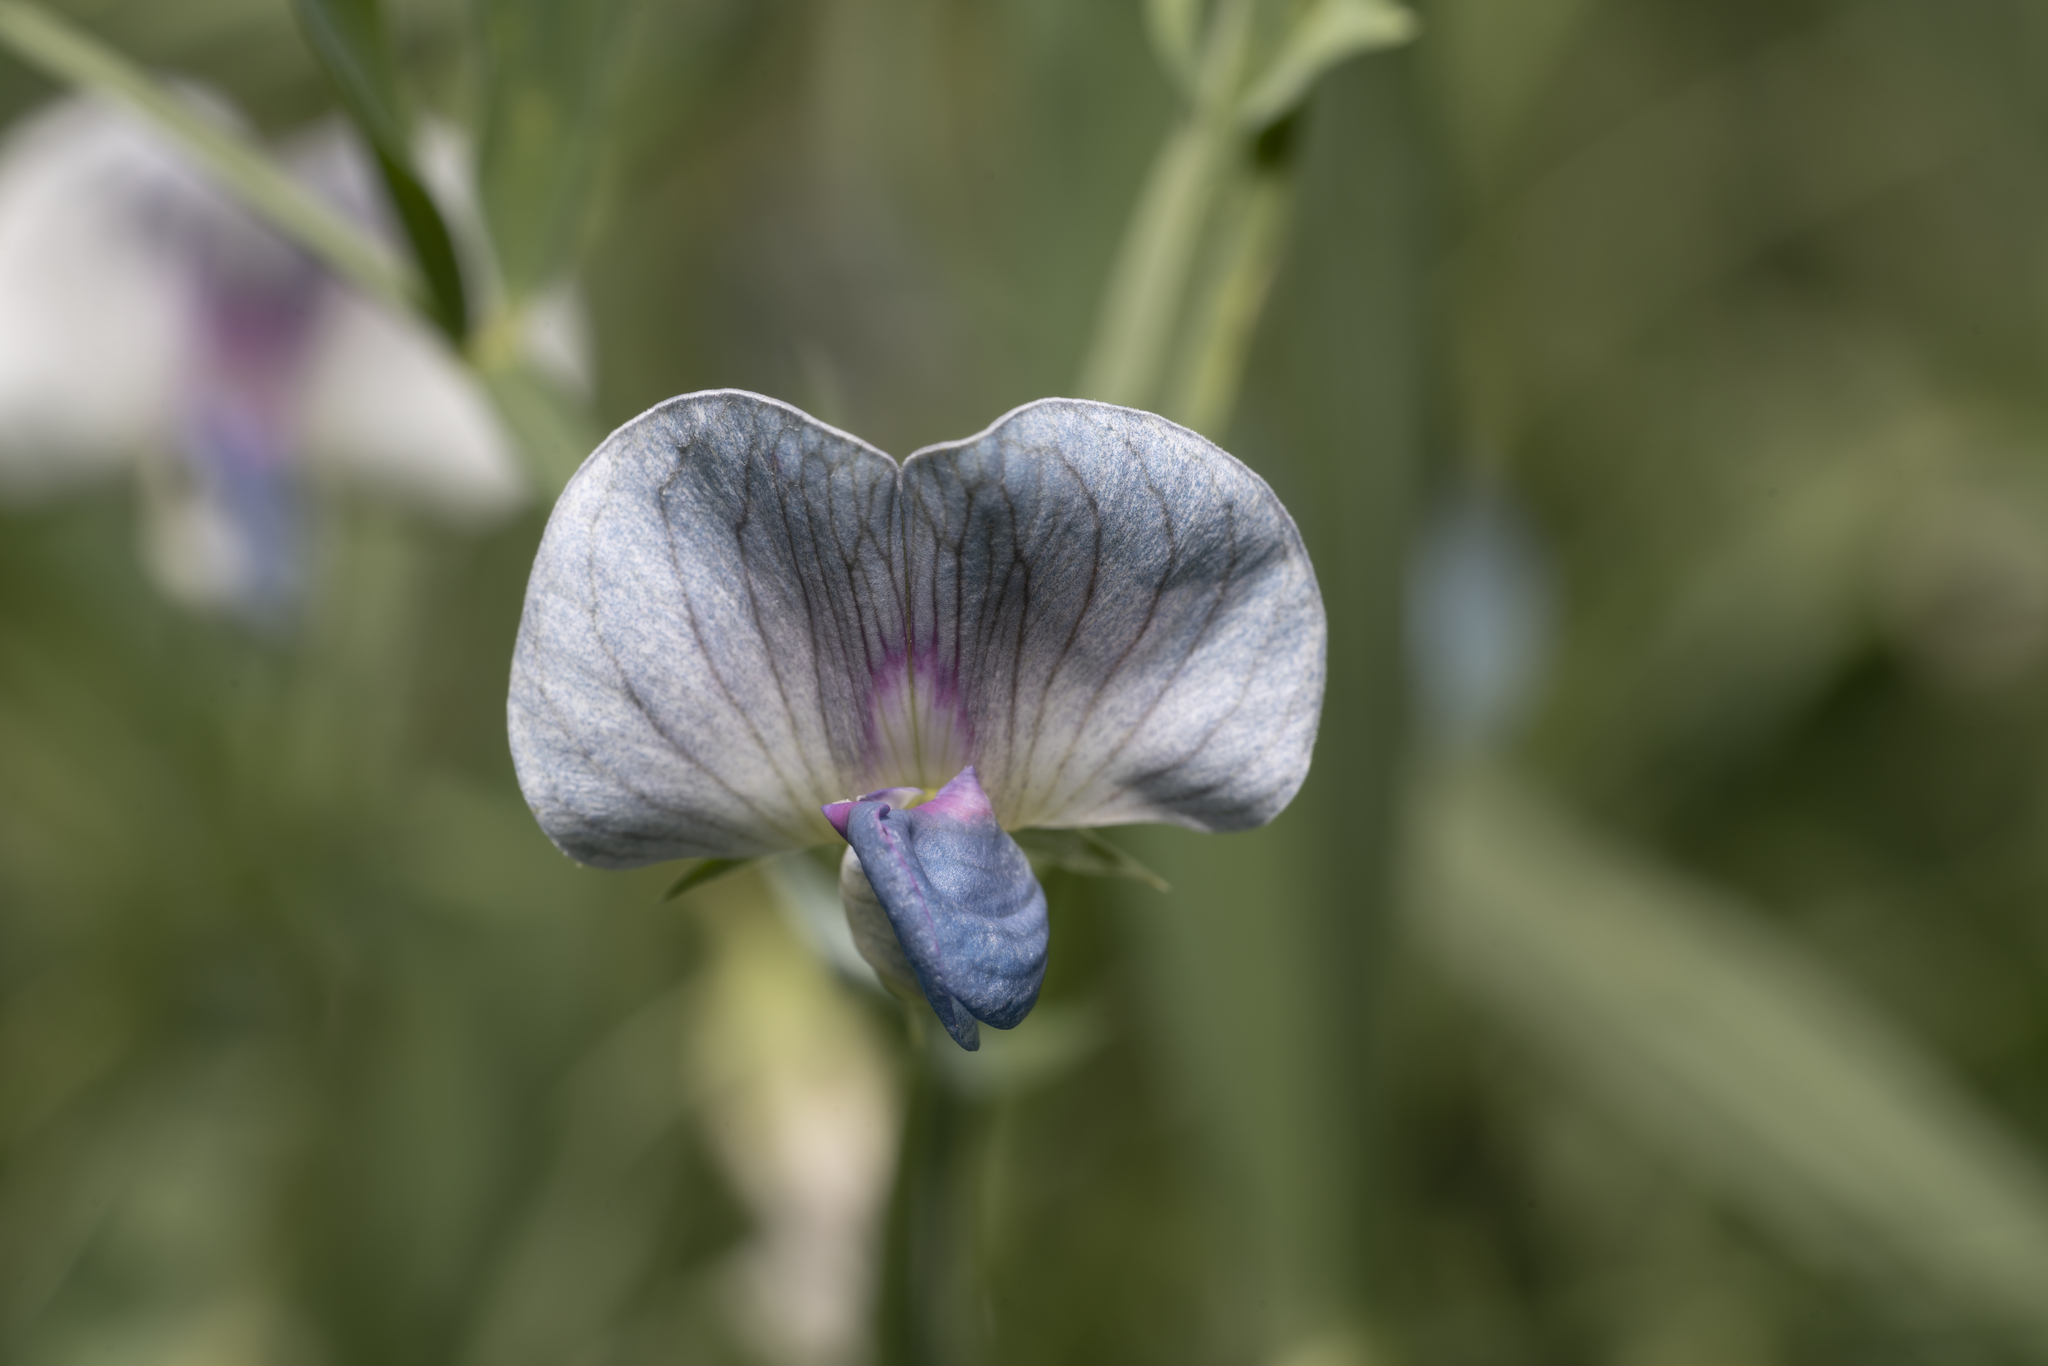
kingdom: Plantae
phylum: Tracheophyta
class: Magnoliopsida
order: Fabales
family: Fabaceae
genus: Lathyrus
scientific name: Lathyrus sativus
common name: Indian pea
